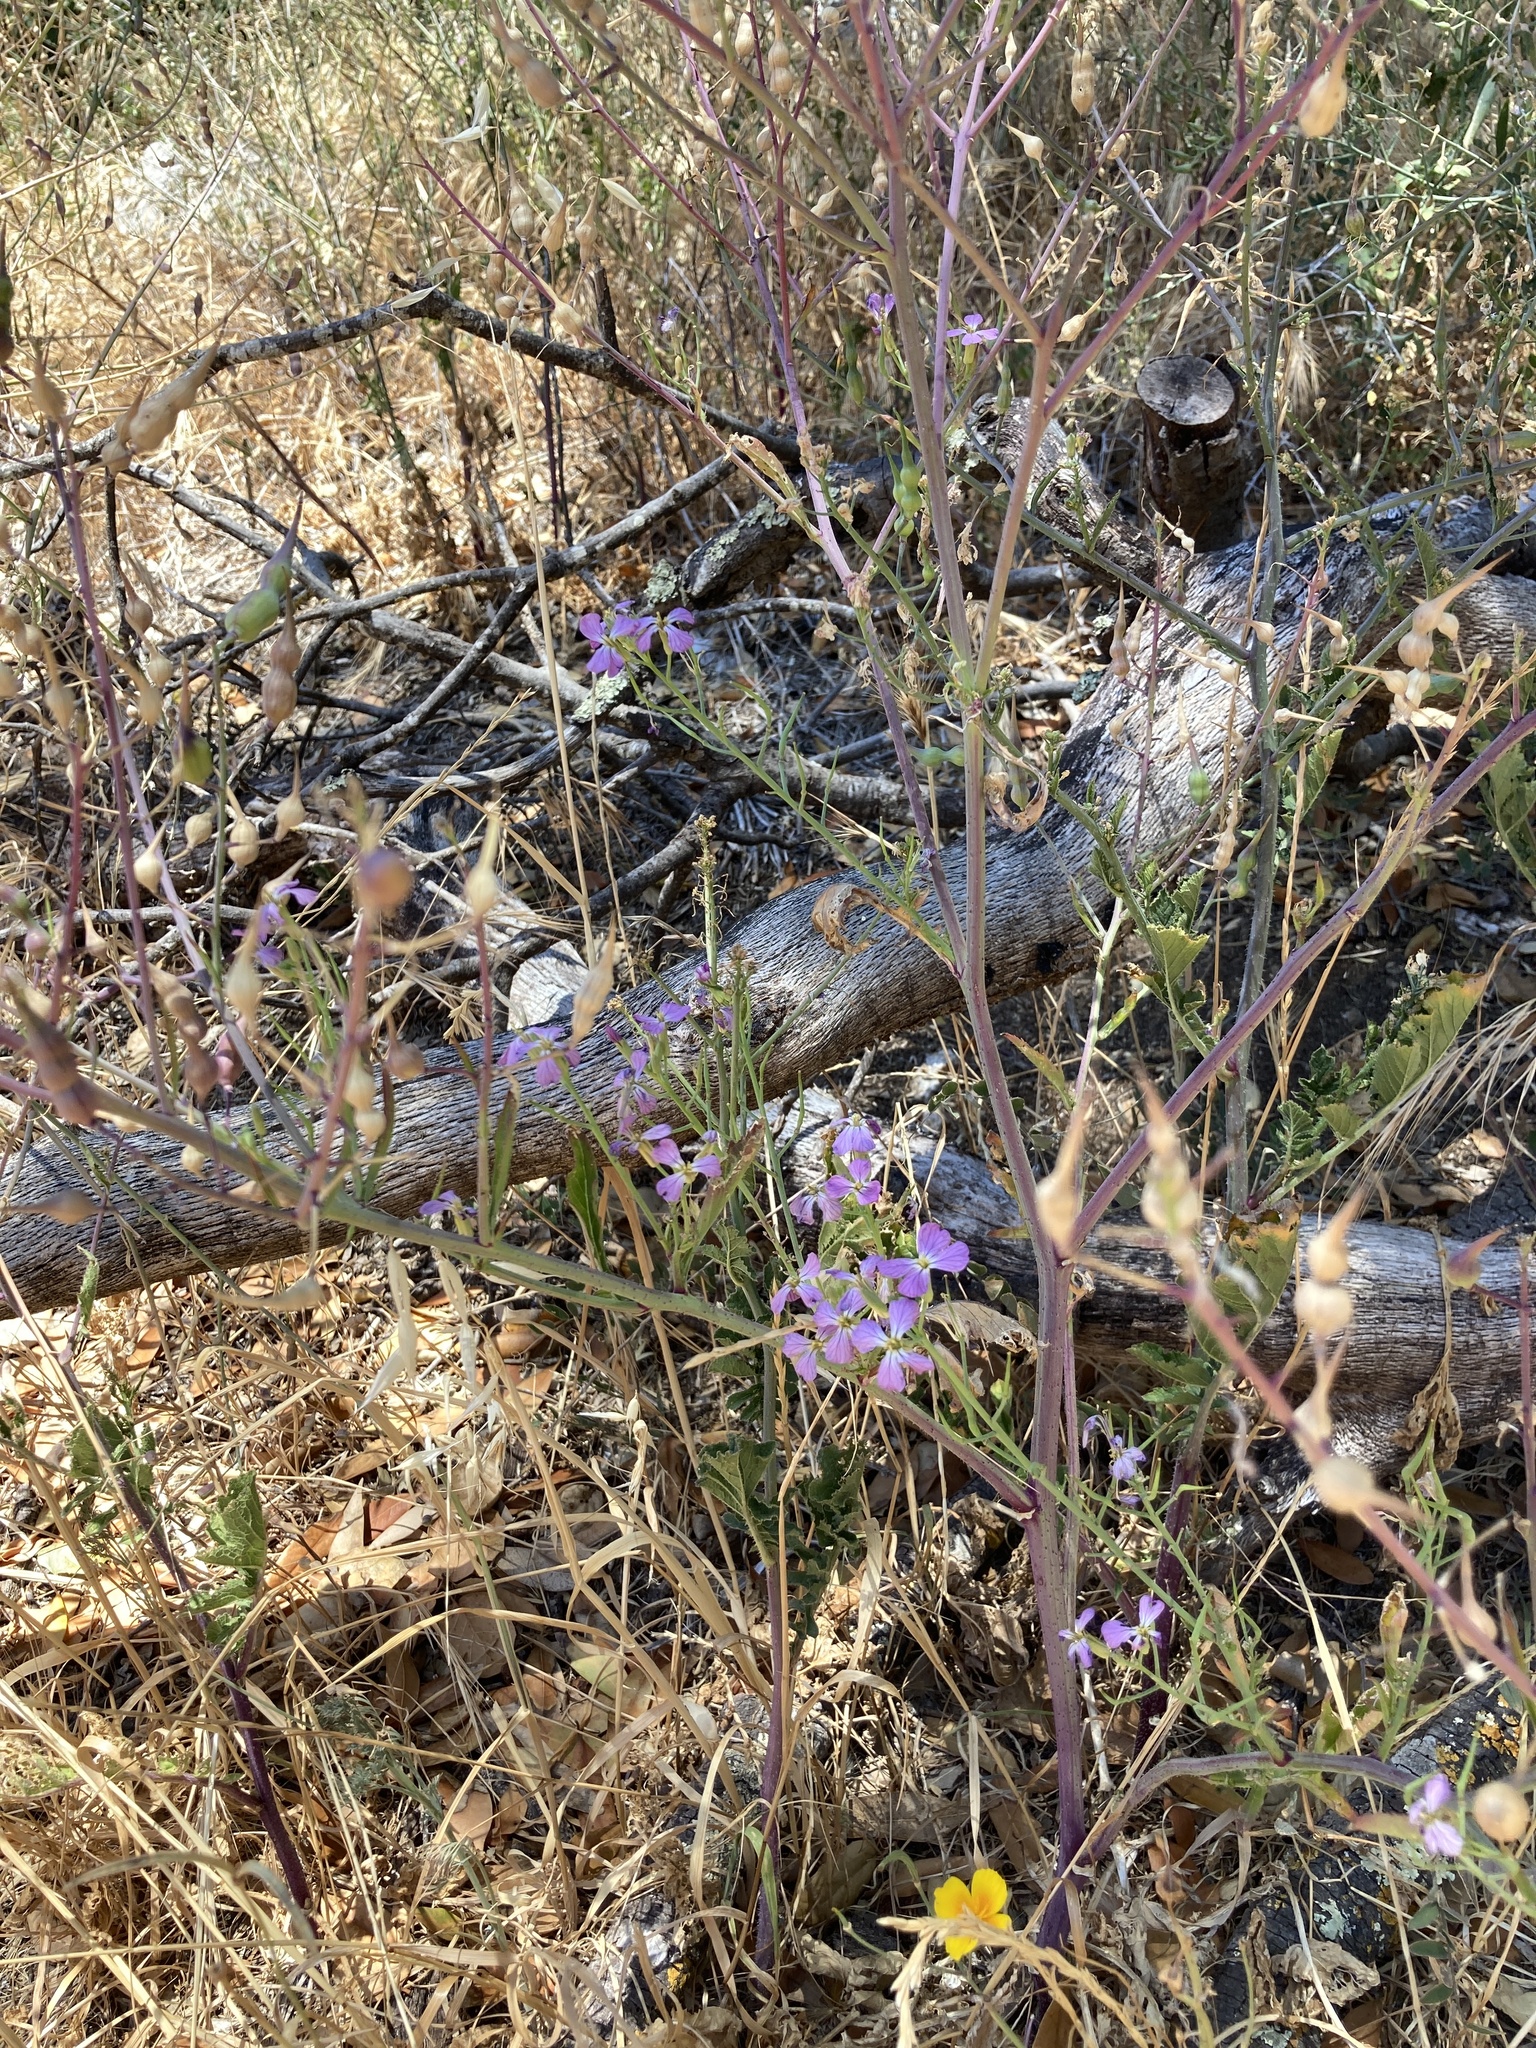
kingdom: Plantae
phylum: Tracheophyta
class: Magnoliopsida
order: Brassicales
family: Brassicaceae
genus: Raphanus
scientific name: Raphanus sativus
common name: Cultivated radish
